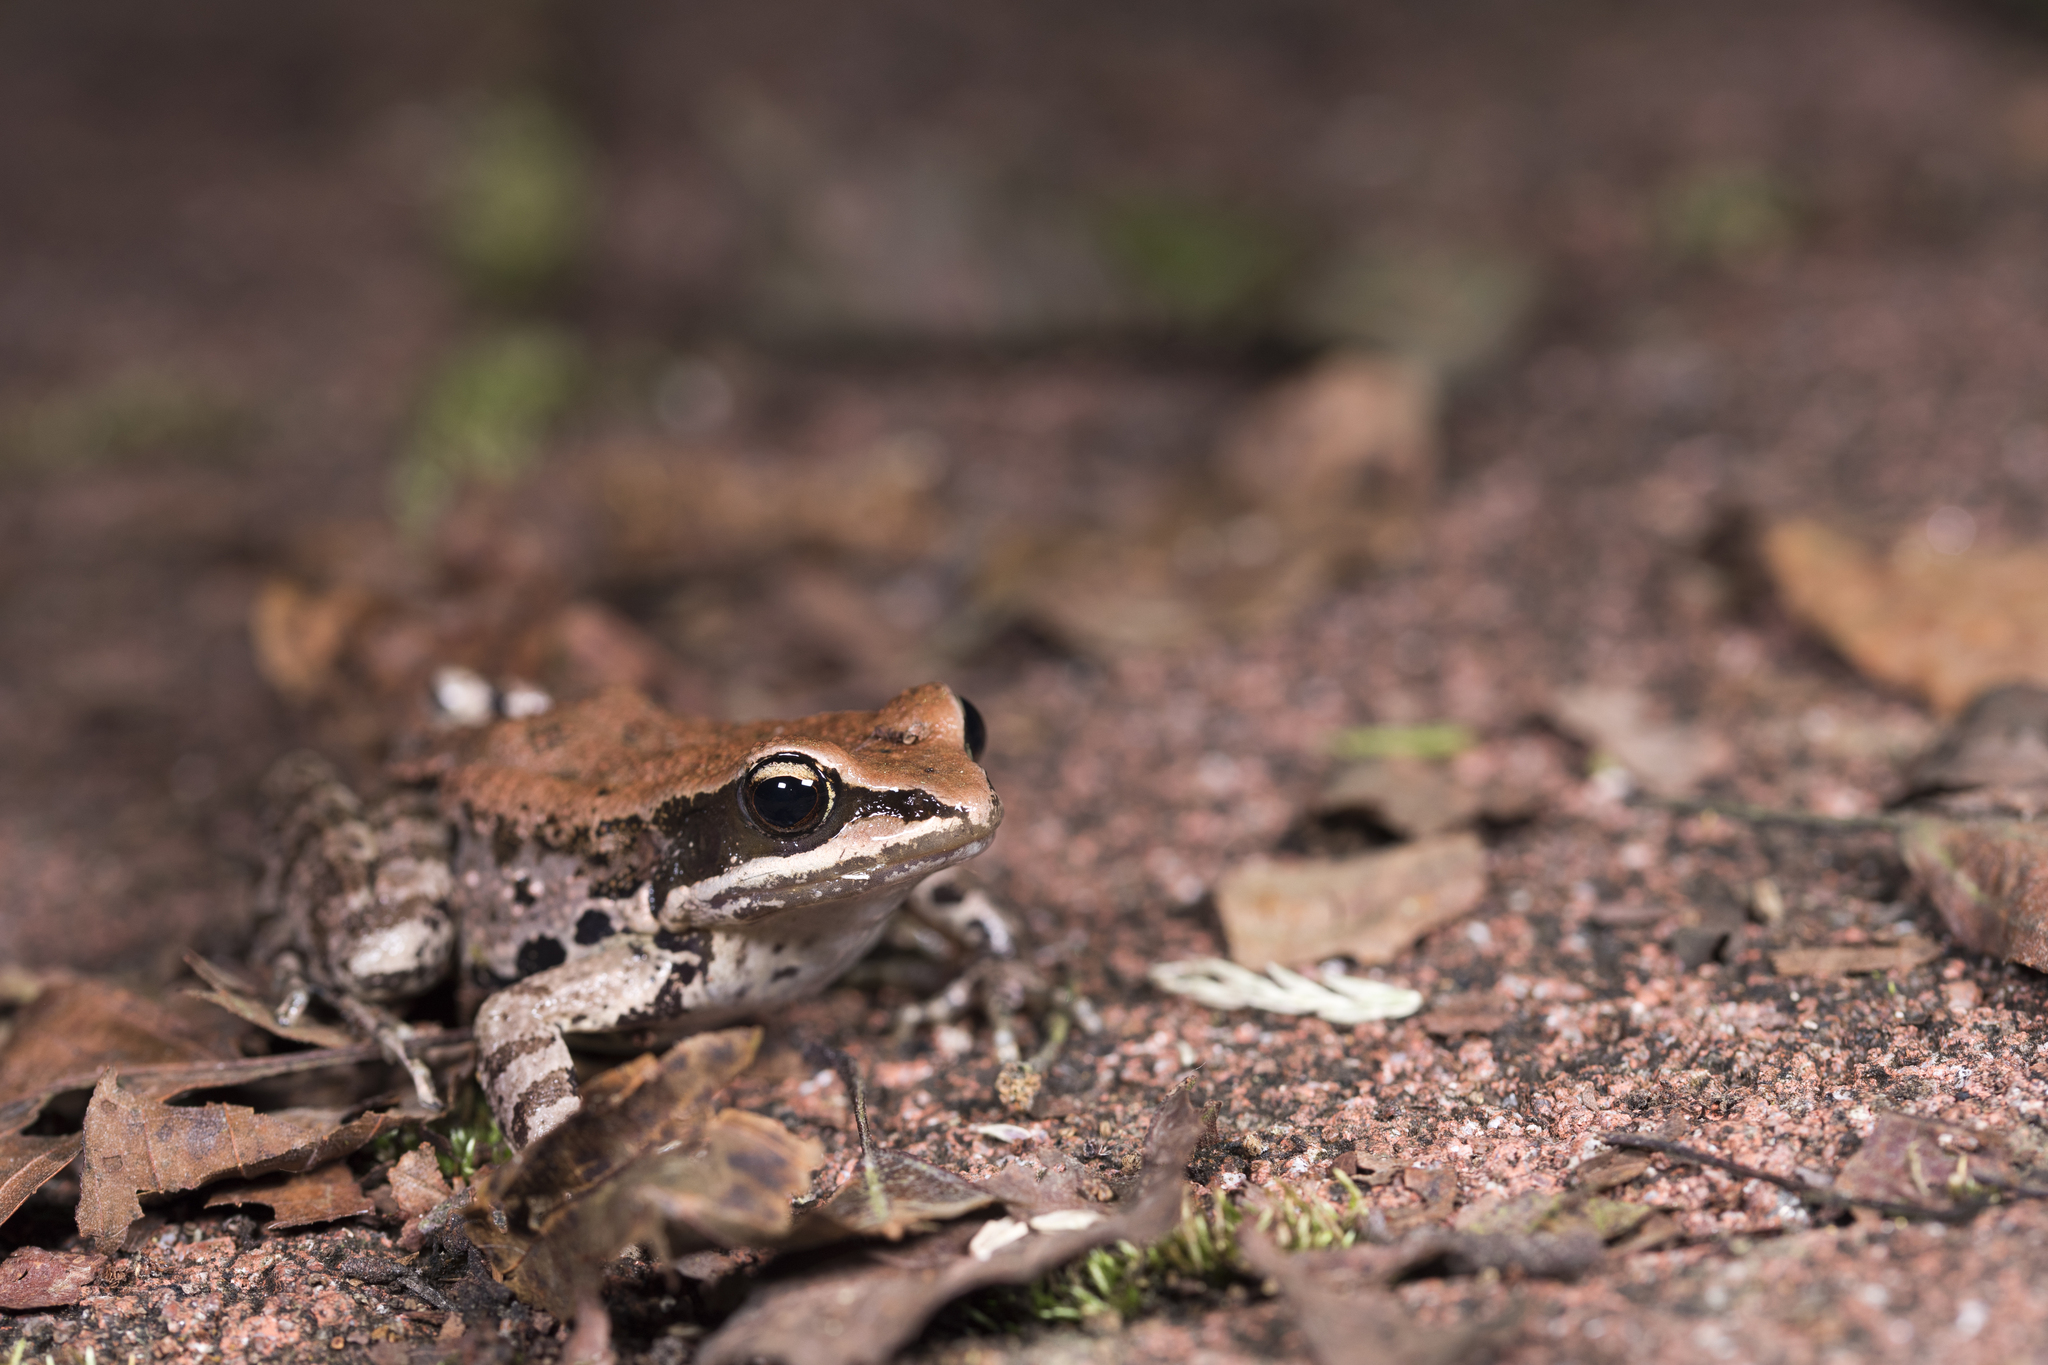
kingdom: Animalia
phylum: Chordata
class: Amphibia
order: Anura
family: Ranidae
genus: Hylarana
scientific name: Hylarana latouchii
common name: Broad-folded frog
